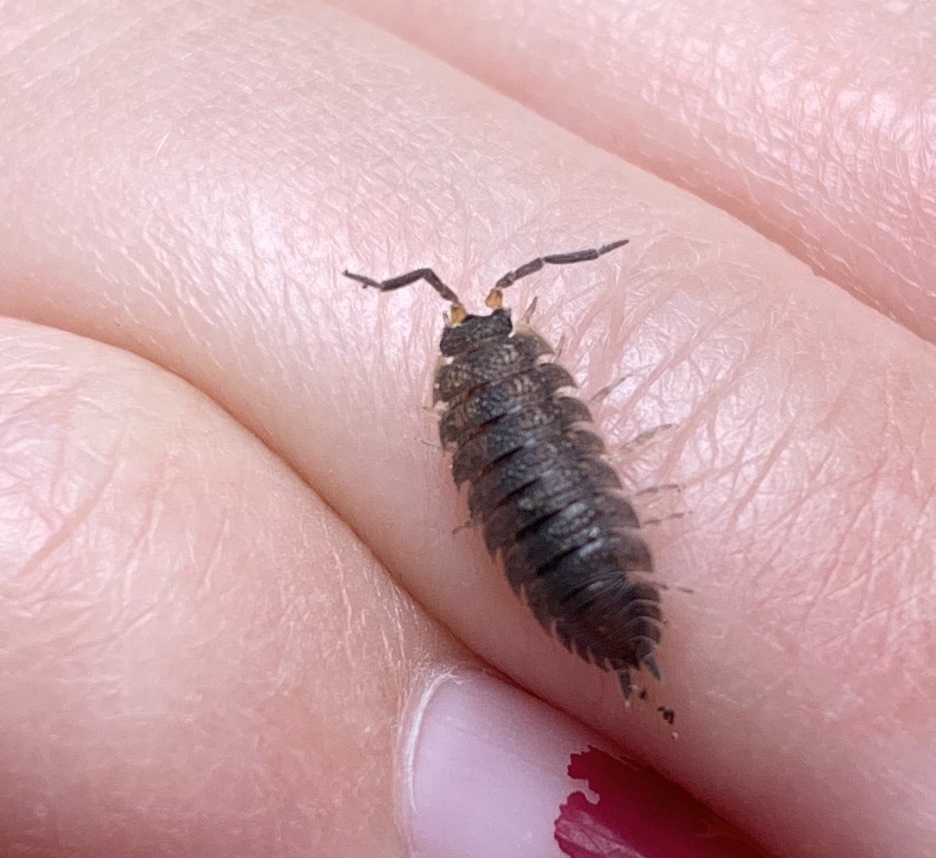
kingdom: Animalia
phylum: Arthropoda
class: Malacostraca
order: Isopoda
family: Porcellionidae
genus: Porcellio
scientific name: Porcellio scaber
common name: Common rough woodlouse
